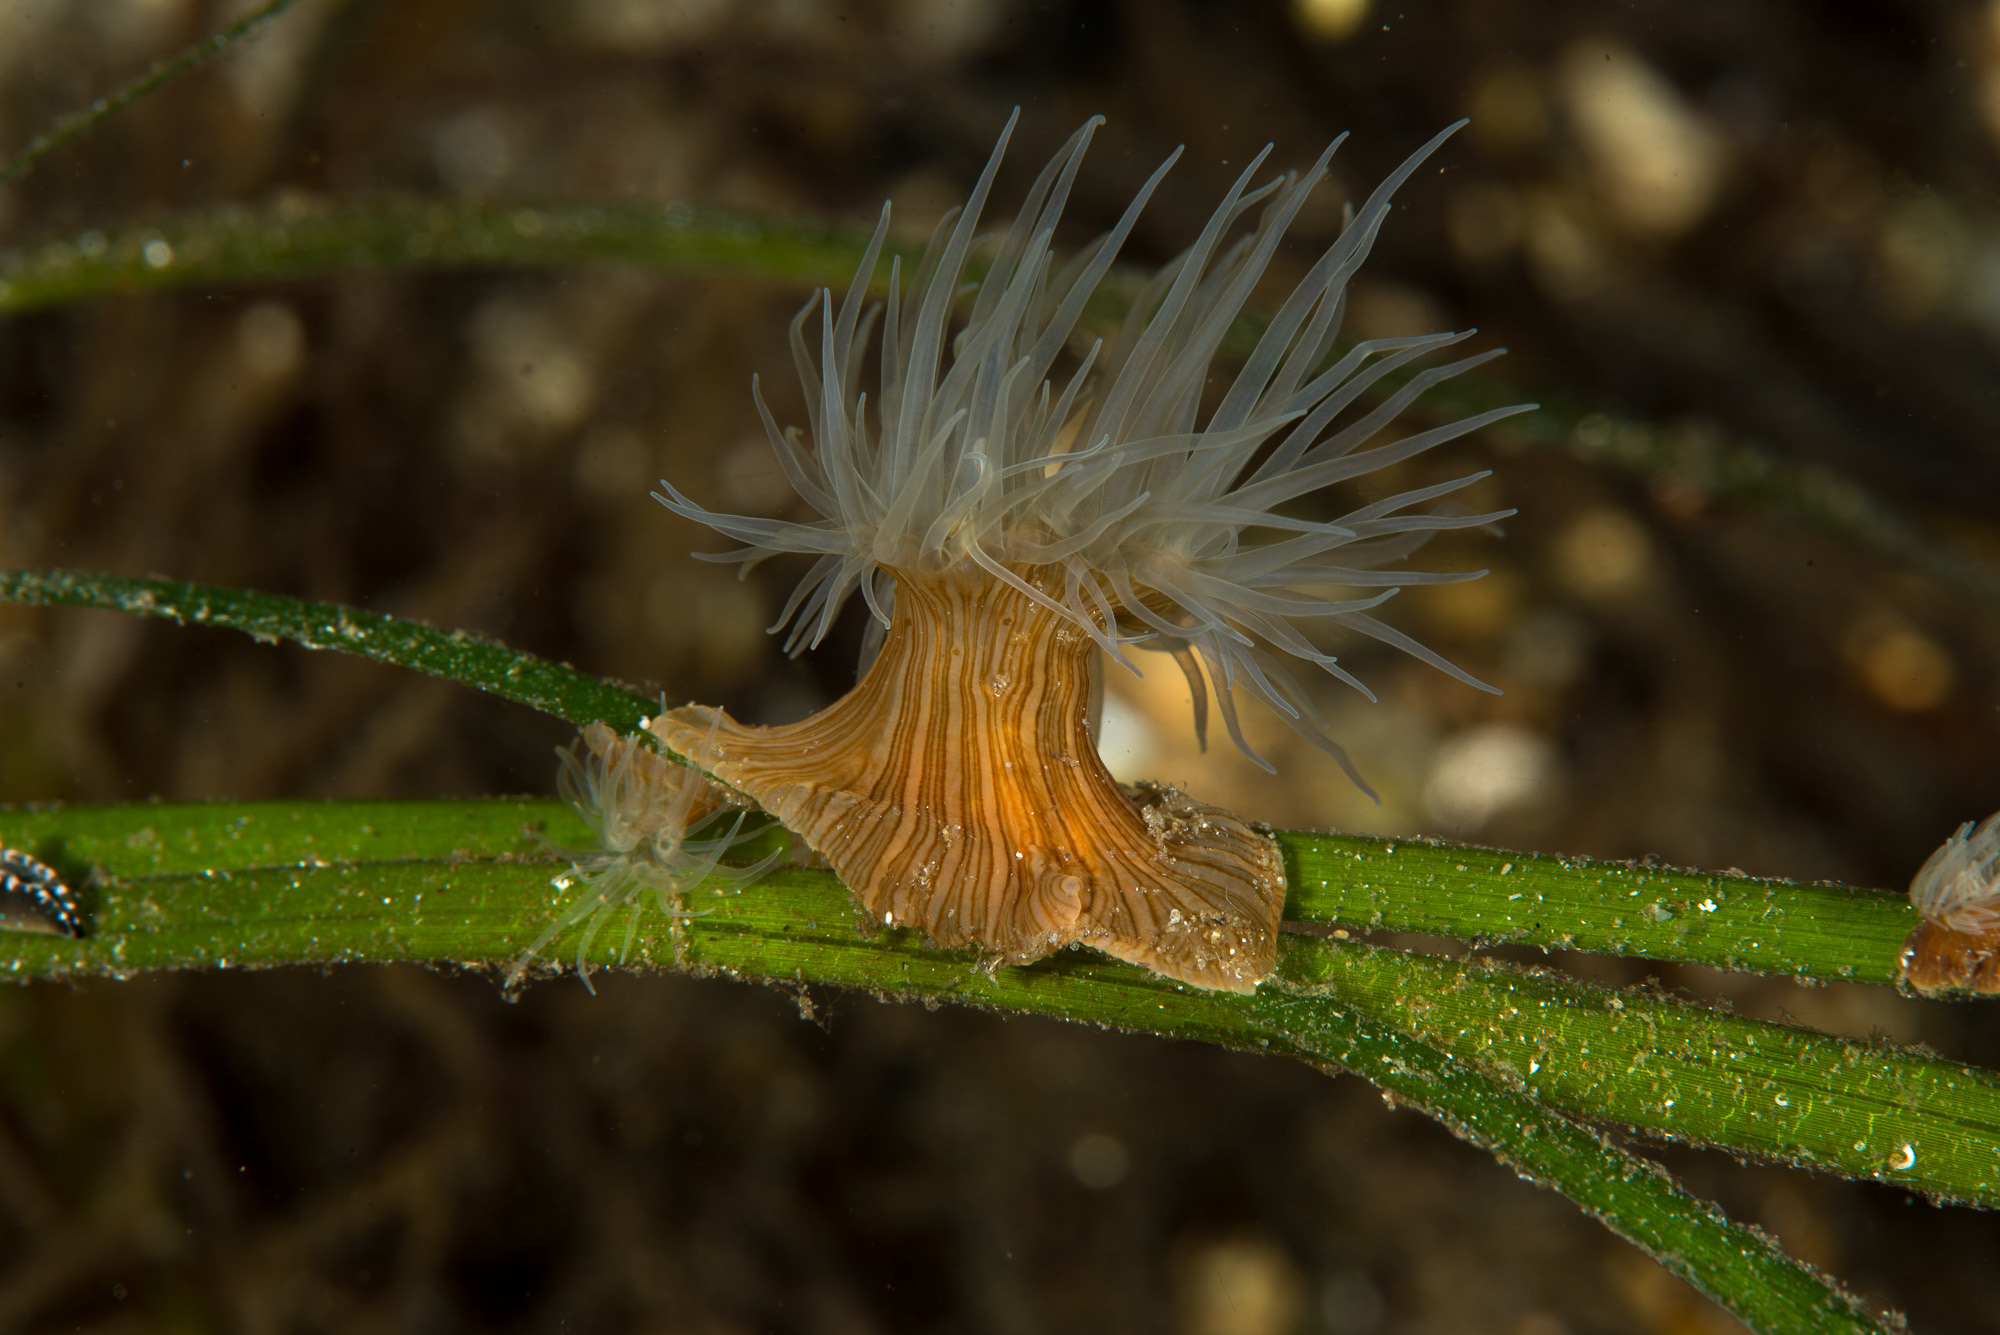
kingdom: Animalia
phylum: Cnidaria
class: Anthozoa
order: Actiniaria
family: Sagartiidae
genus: Sagartia
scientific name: Sagartia viduata
